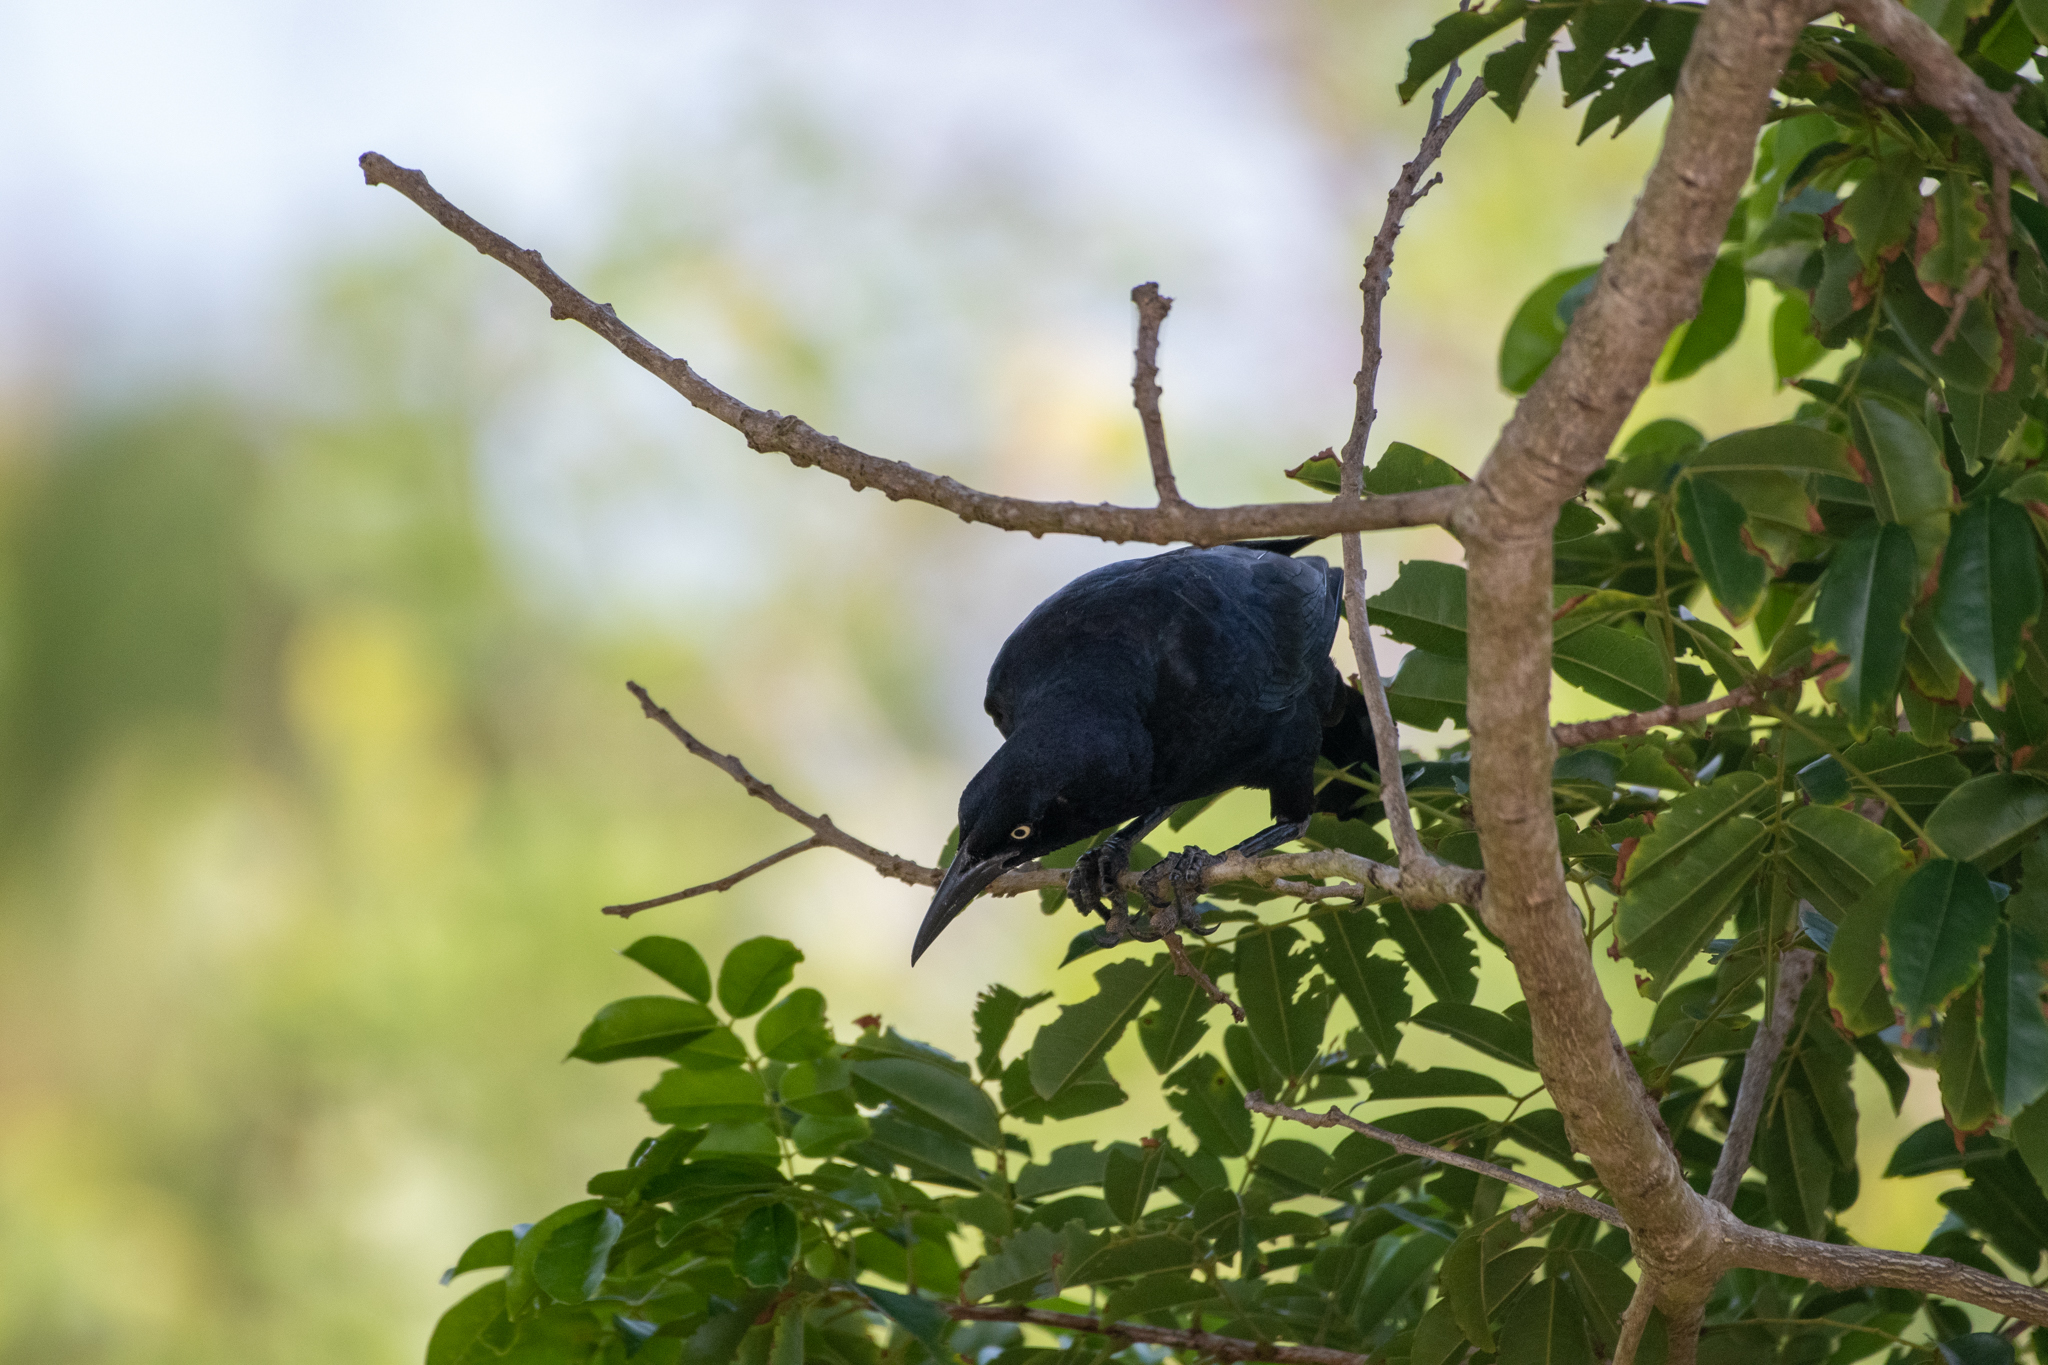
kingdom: Animalia
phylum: Chordata
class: Aves
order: Passeriformes
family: Icteridae
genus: Quiscalus
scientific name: Quiscalus mexicanus
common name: Great-tailed grackle
